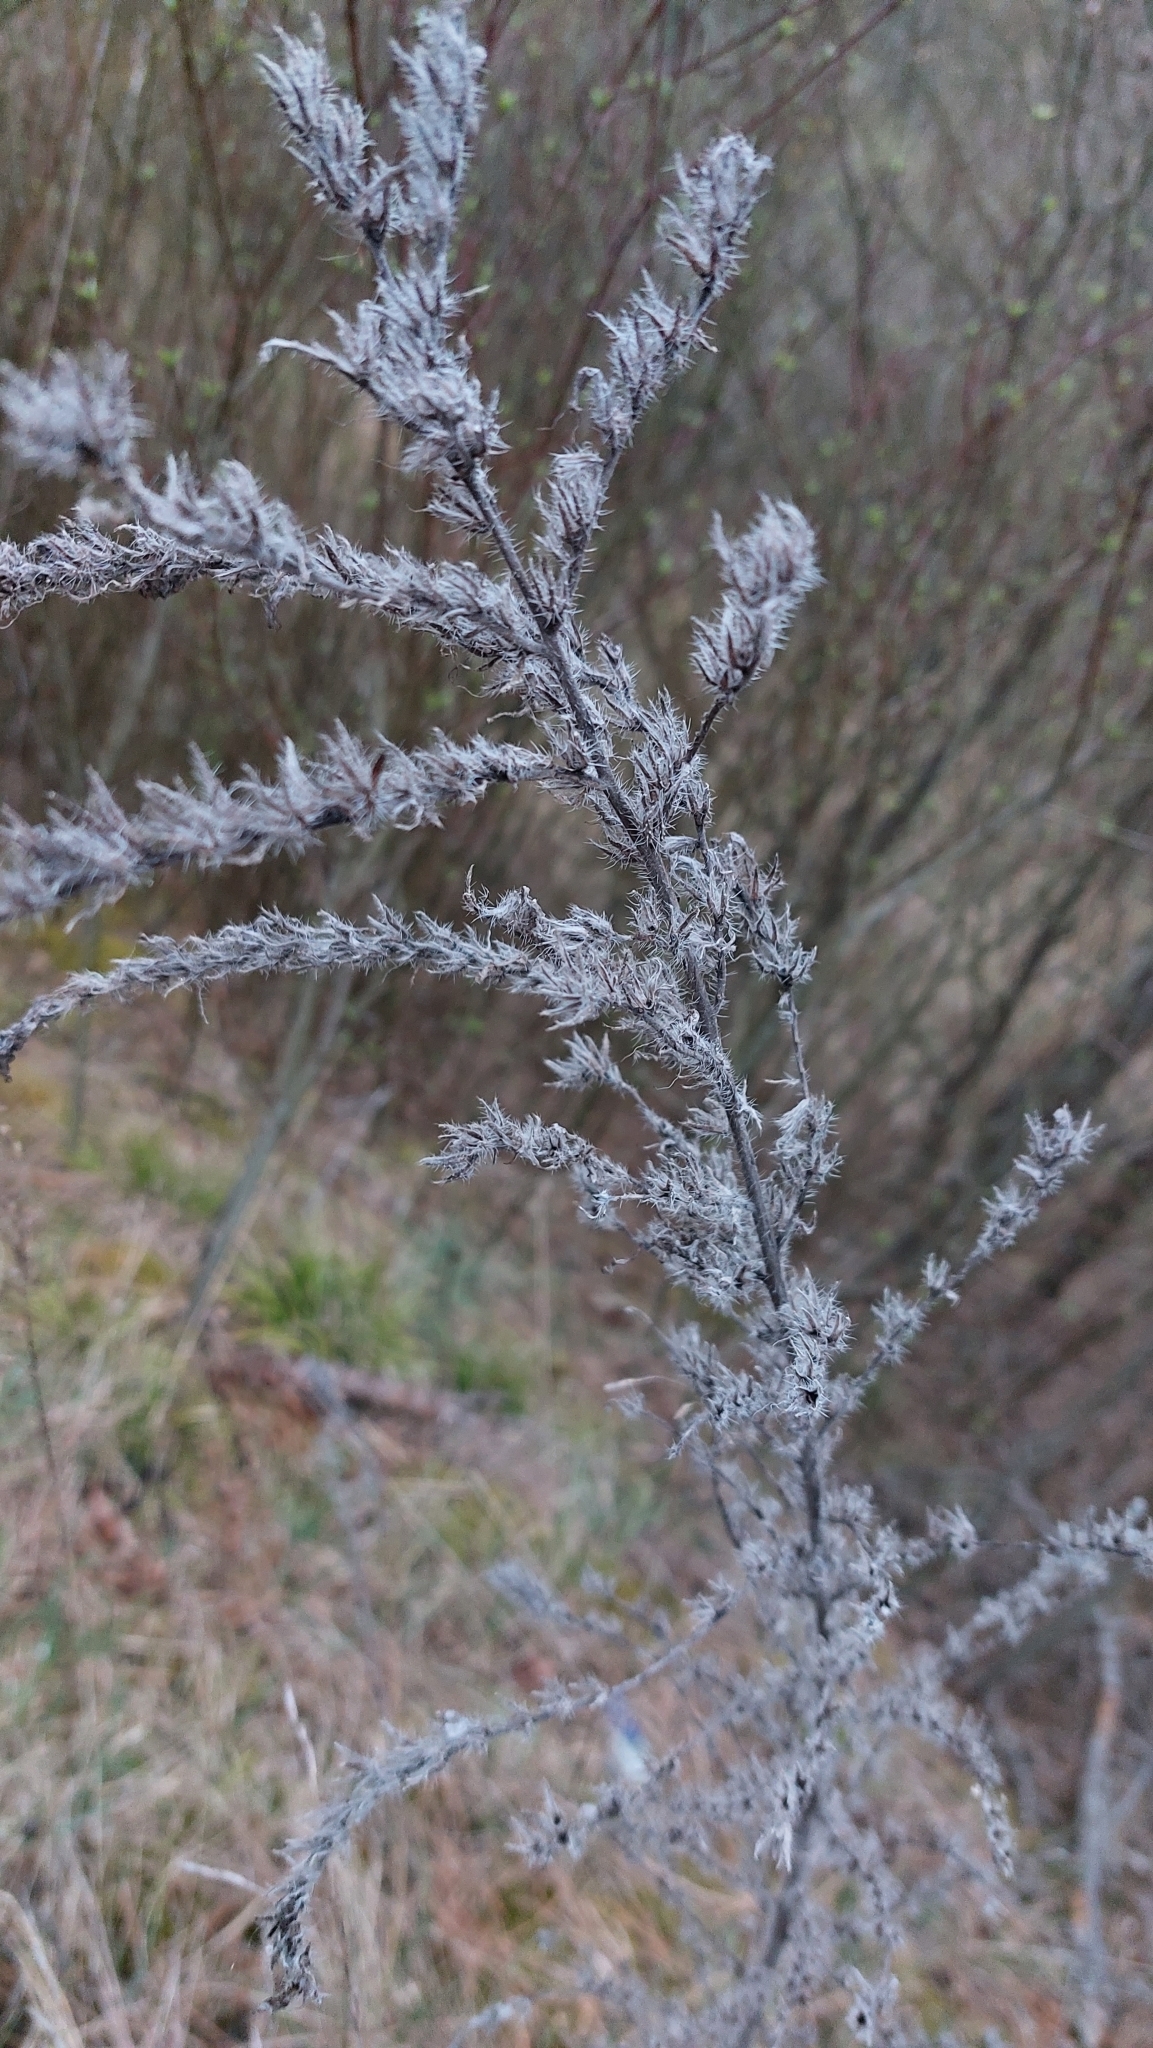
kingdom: Plantae
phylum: Tracheophyta
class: Magnoliopsida
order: Boraginales
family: Boraginaceae
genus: Echium
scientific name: Echium vulgare
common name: Common viper's bugloss
